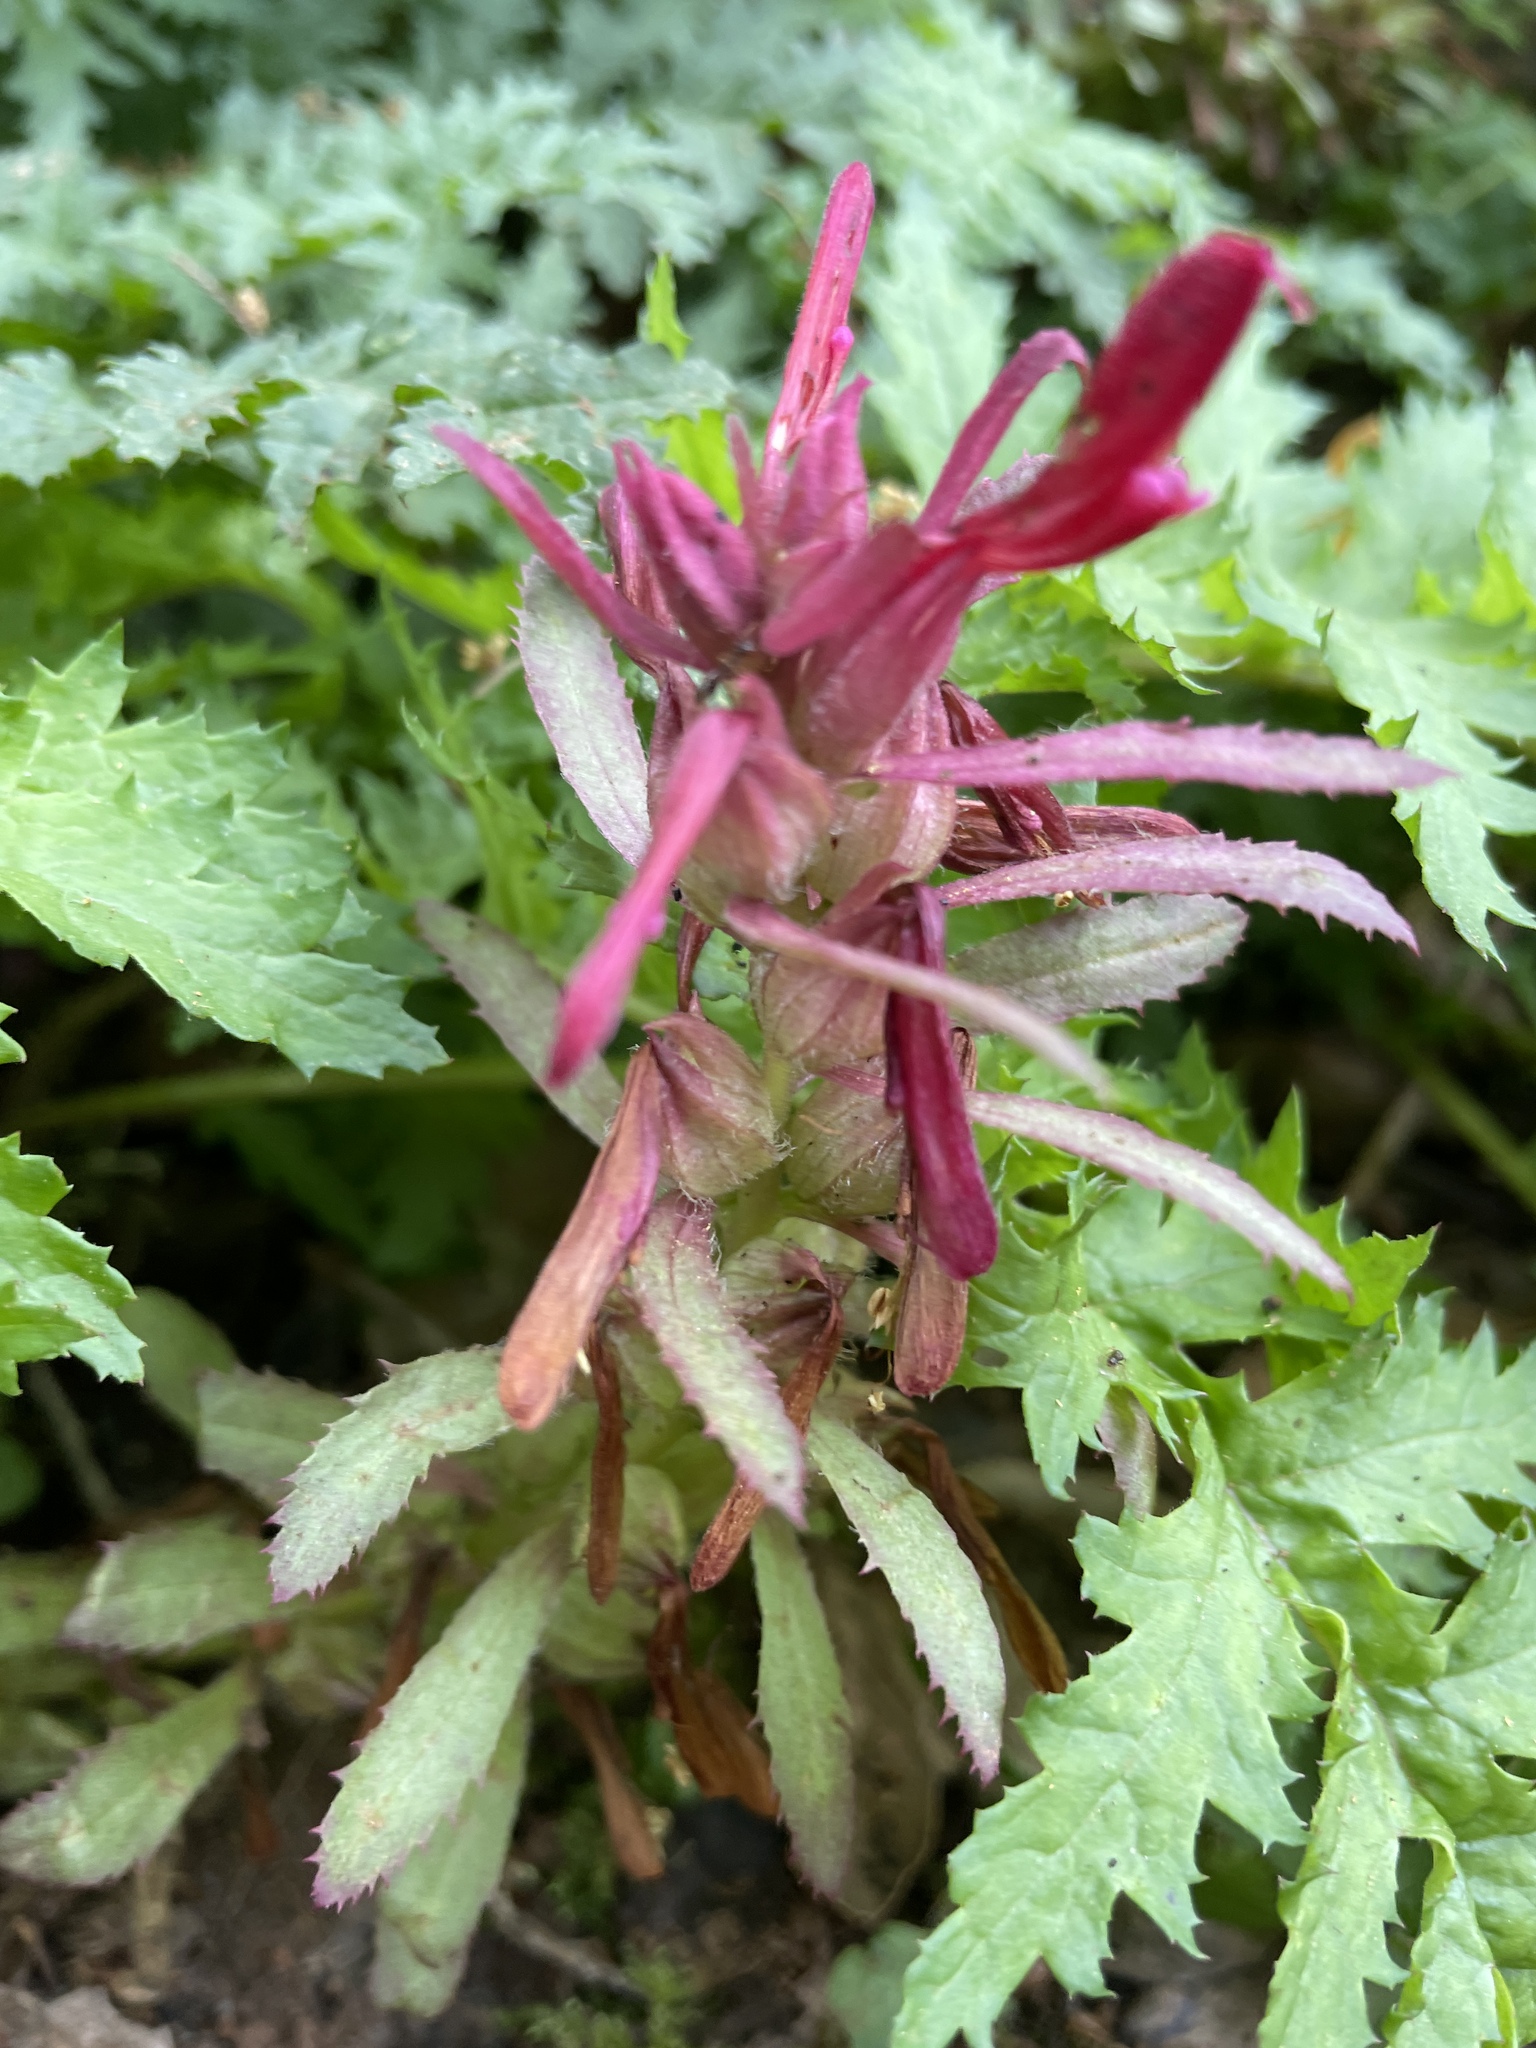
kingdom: Plantae
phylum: Tracheophyta
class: Magnoliopsida
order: Lamiales
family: Orobanchaceae
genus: Pedicularis
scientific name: Pedicularis densiflora
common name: Indian warrior
